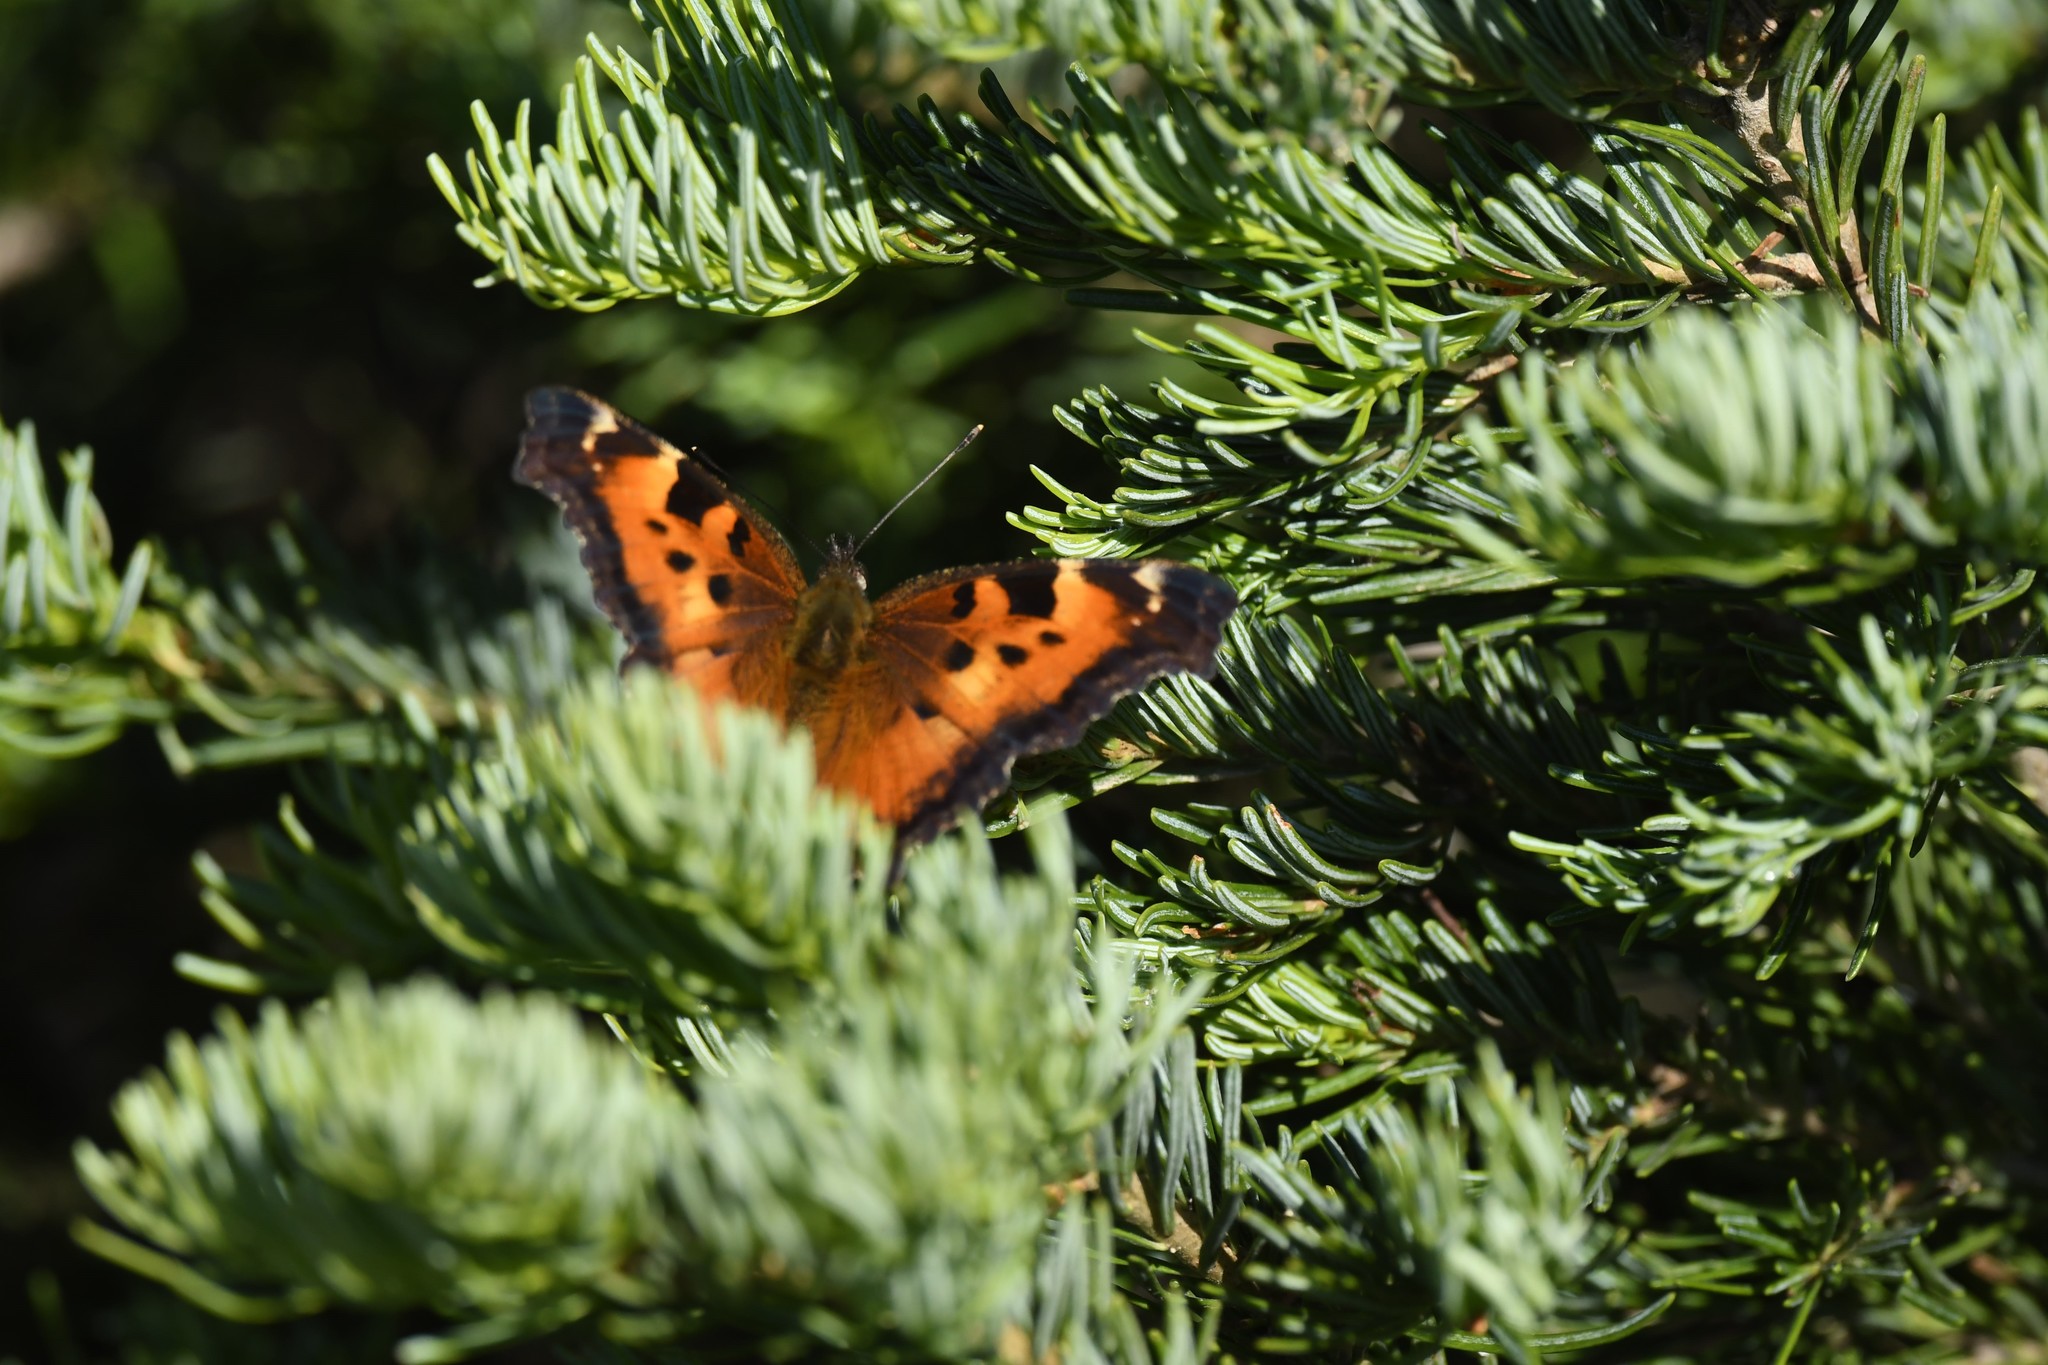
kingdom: Animalia
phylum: Arthropoda
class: Insecta
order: Lepidoptera
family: Nymphalidae
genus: Nymphalis
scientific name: Nymphalis californica
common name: California tortoiseshell
